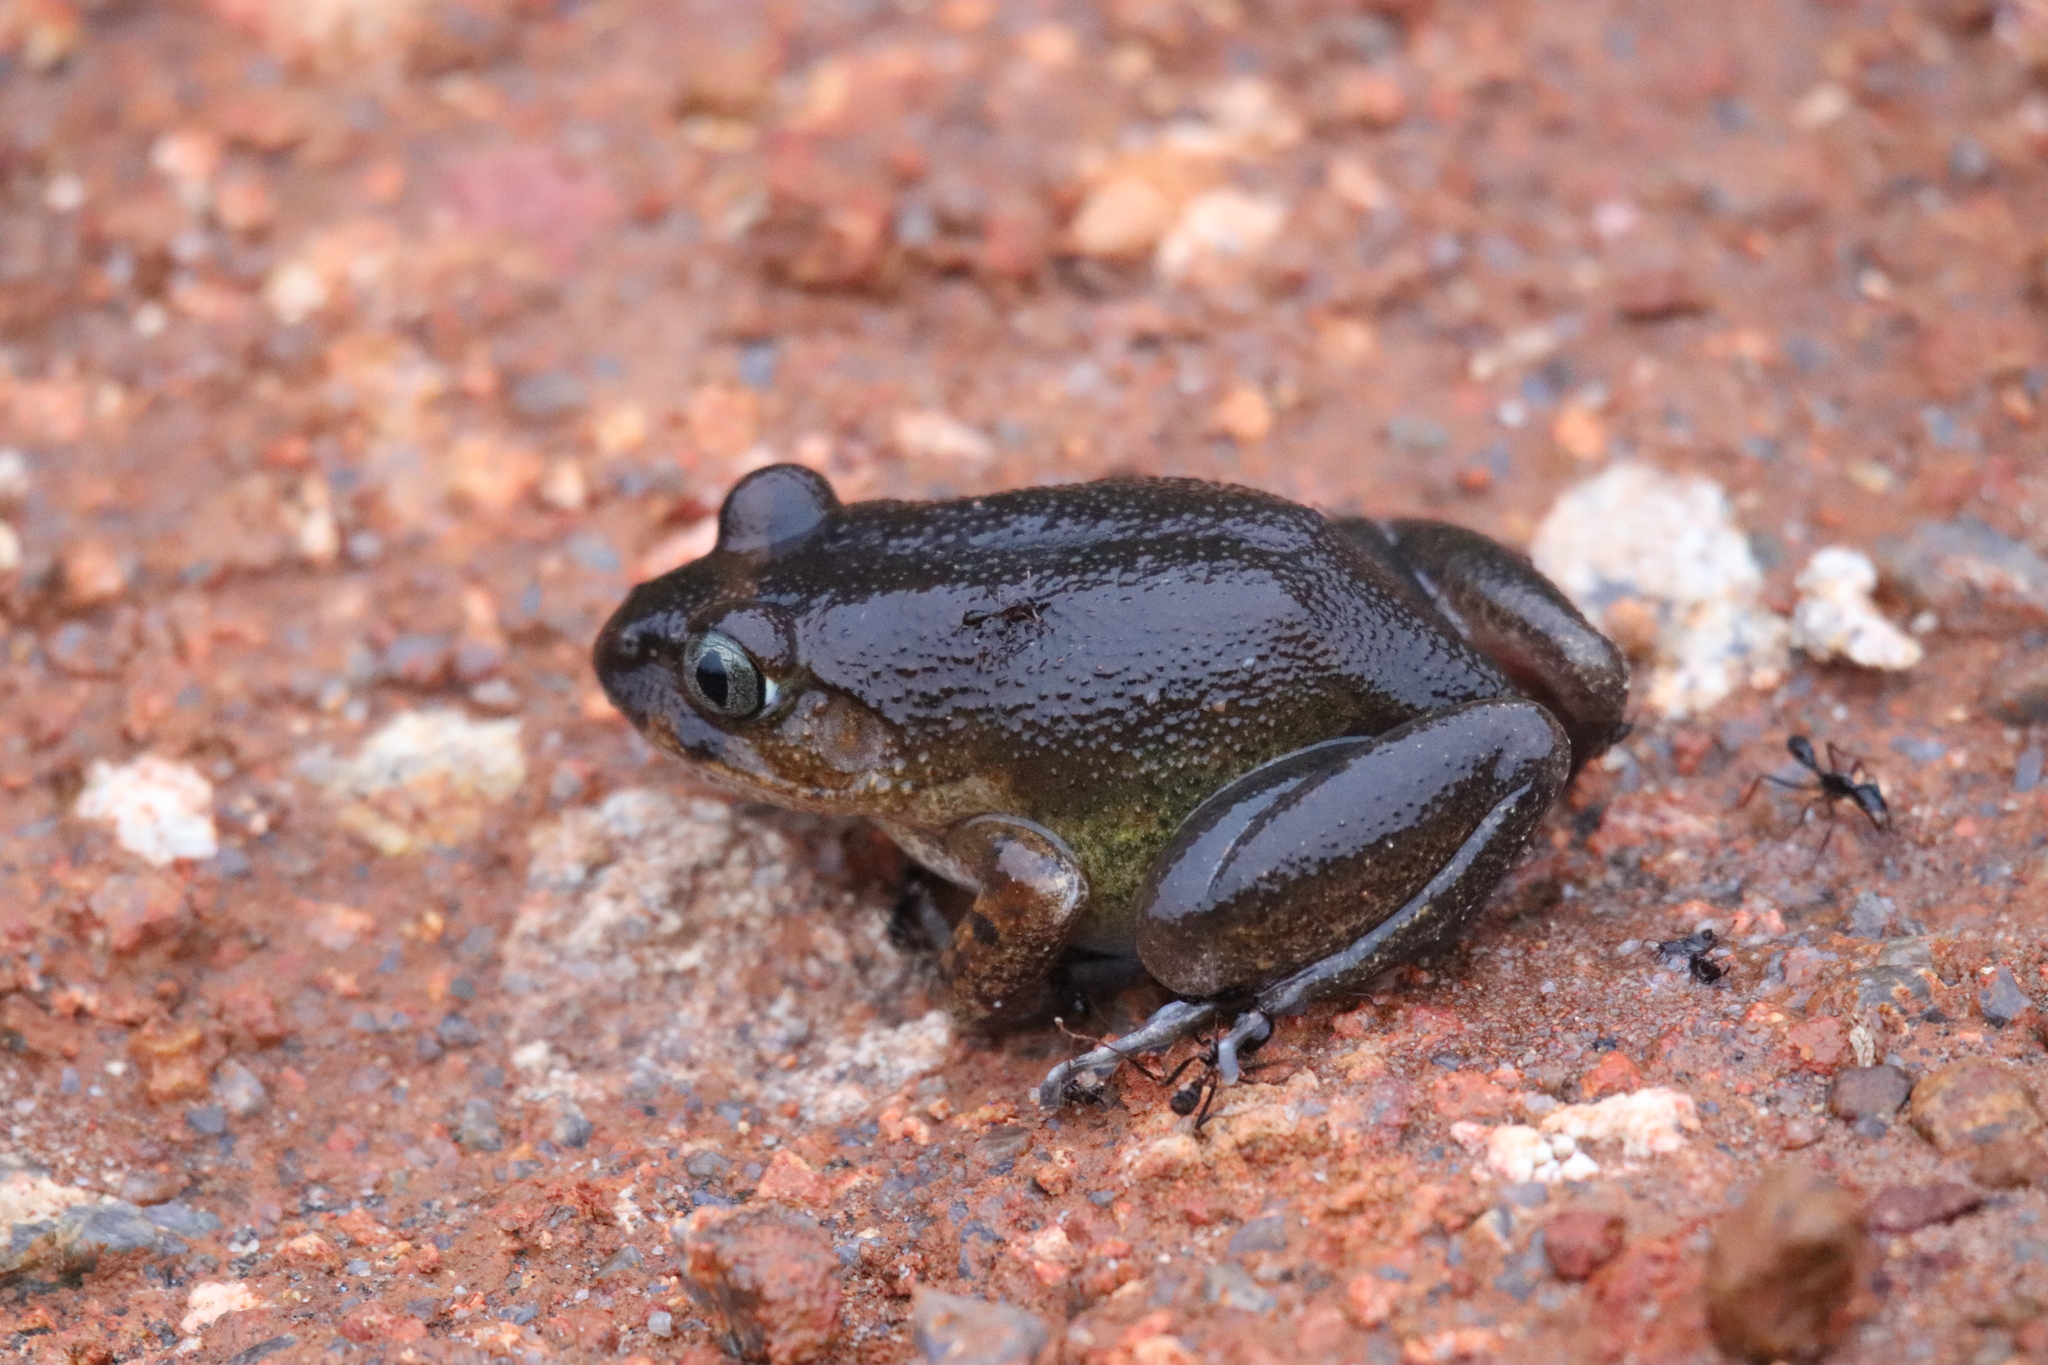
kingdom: Animalia
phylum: Chordata
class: Amphibia
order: Anura
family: Arthroleptidae
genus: Astylosternus
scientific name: Astylosternus occidentalis
